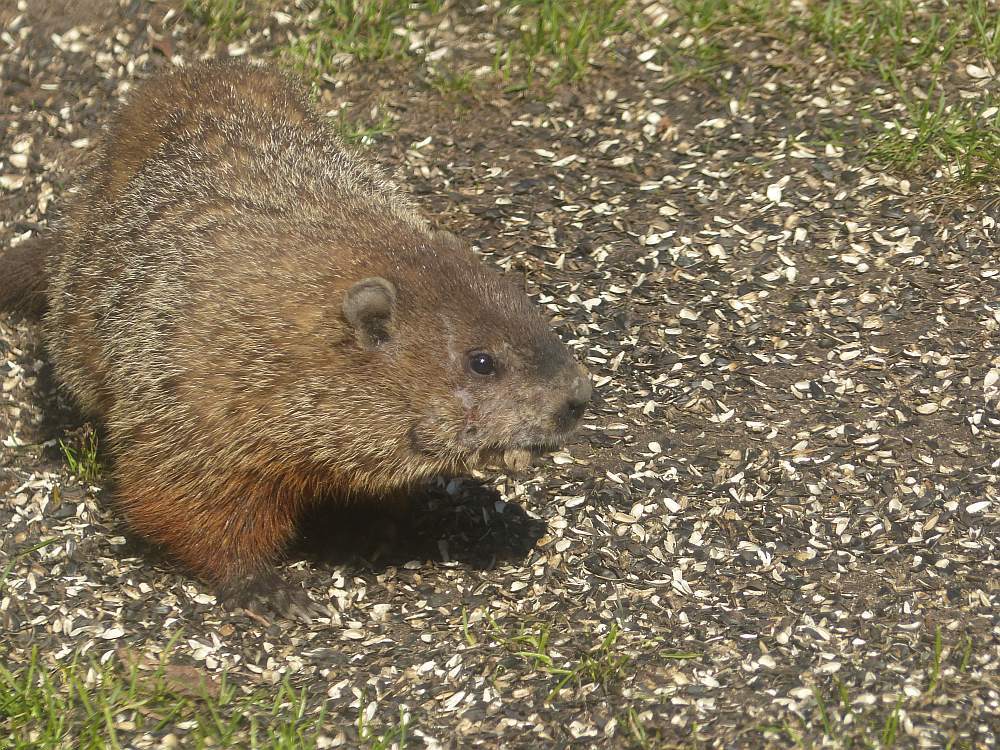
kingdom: Animalia
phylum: Chordata
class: Mammalia
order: Rodentia
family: Sciuridae
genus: Marmota
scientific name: Marmota monax
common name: Groundhog
